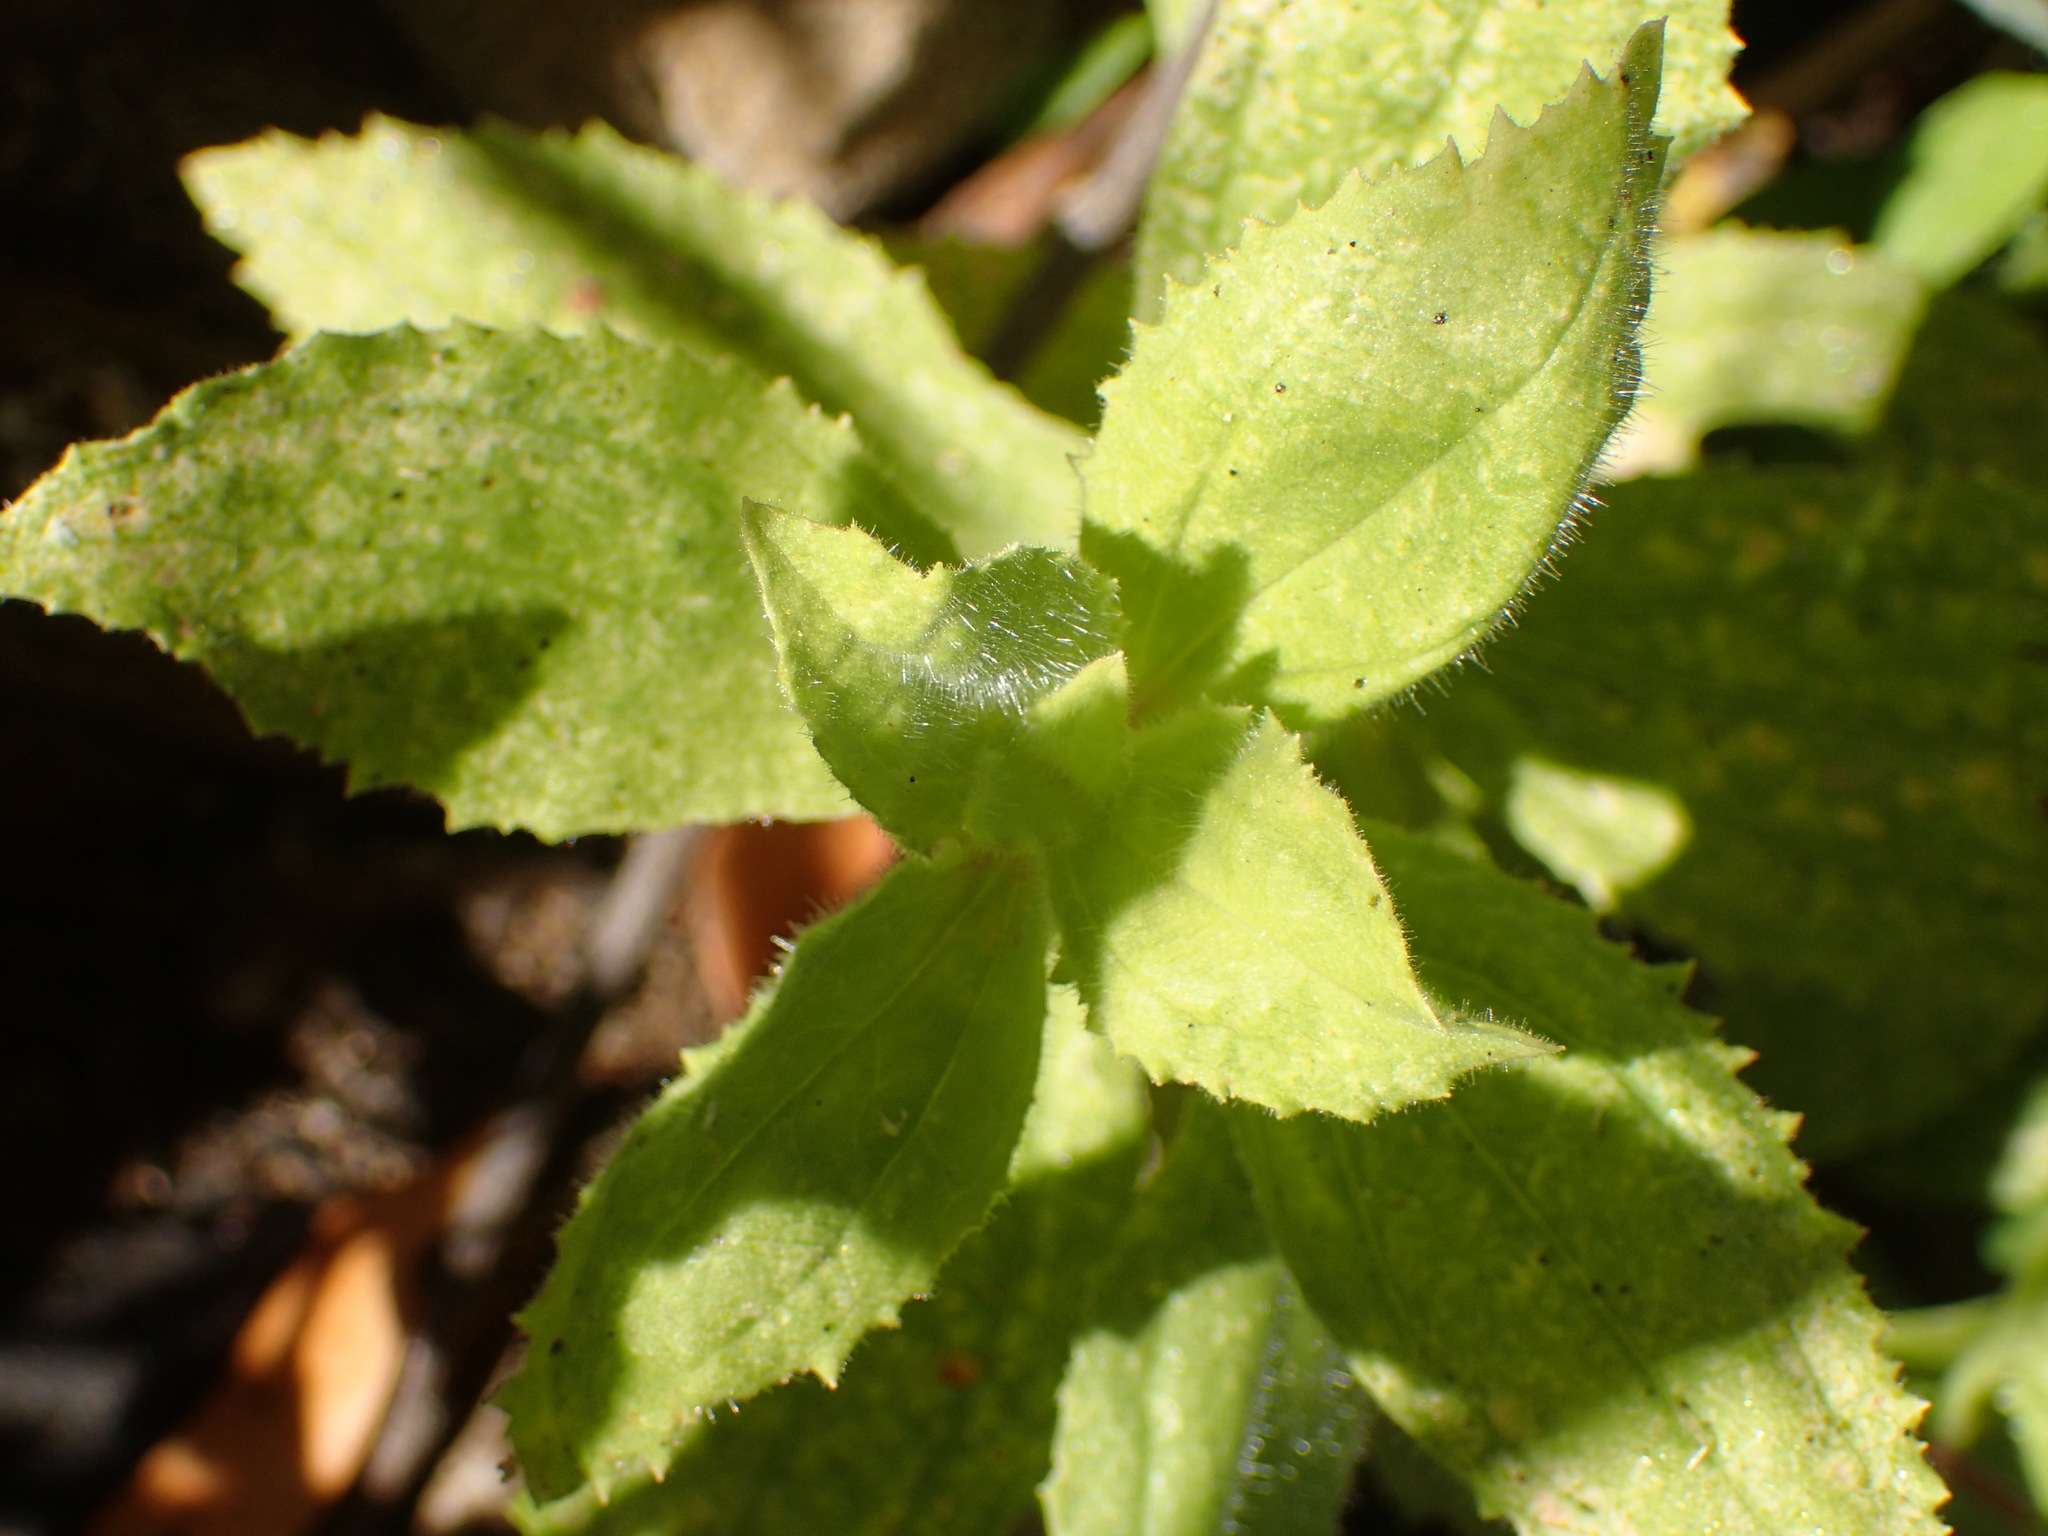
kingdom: Plantae
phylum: Tracheophyta
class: Magnoliopsida
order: Lamiales
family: Phrymaceae
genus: Erythranthe
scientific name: Erythranthe cardinalis
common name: Scarlet monkey-flower
